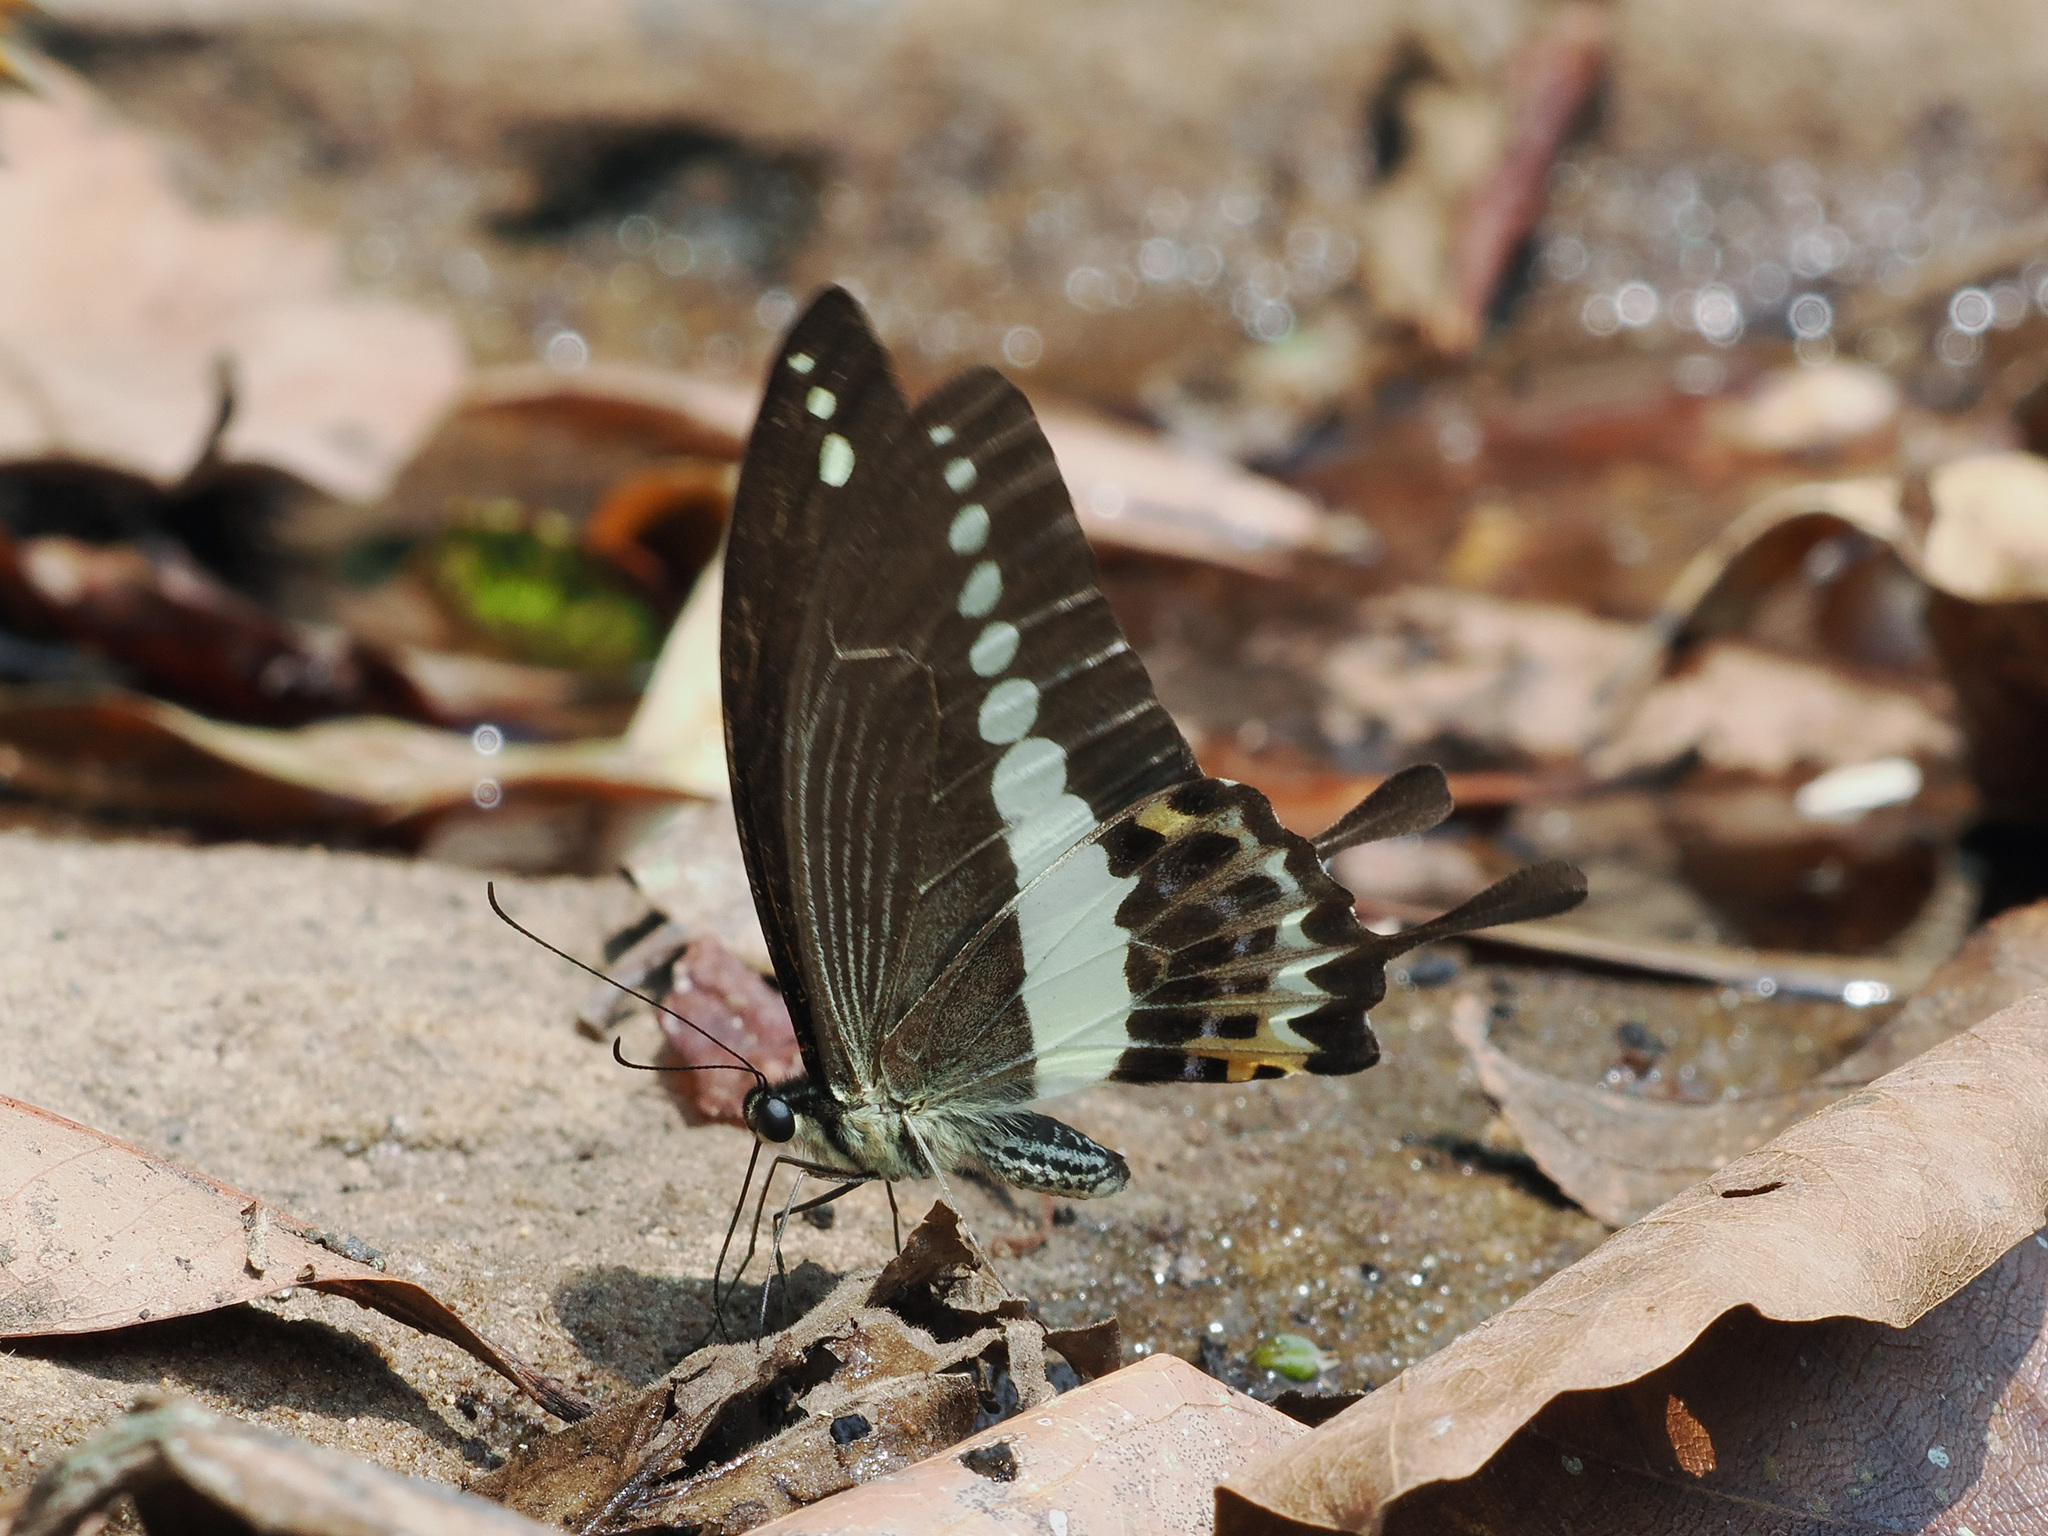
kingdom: Animalia
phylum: Arthropoda
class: Insecta
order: Lepidoptera
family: Papilionidae
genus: Papilio
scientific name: Papilio demolion
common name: Banded swallowtail
